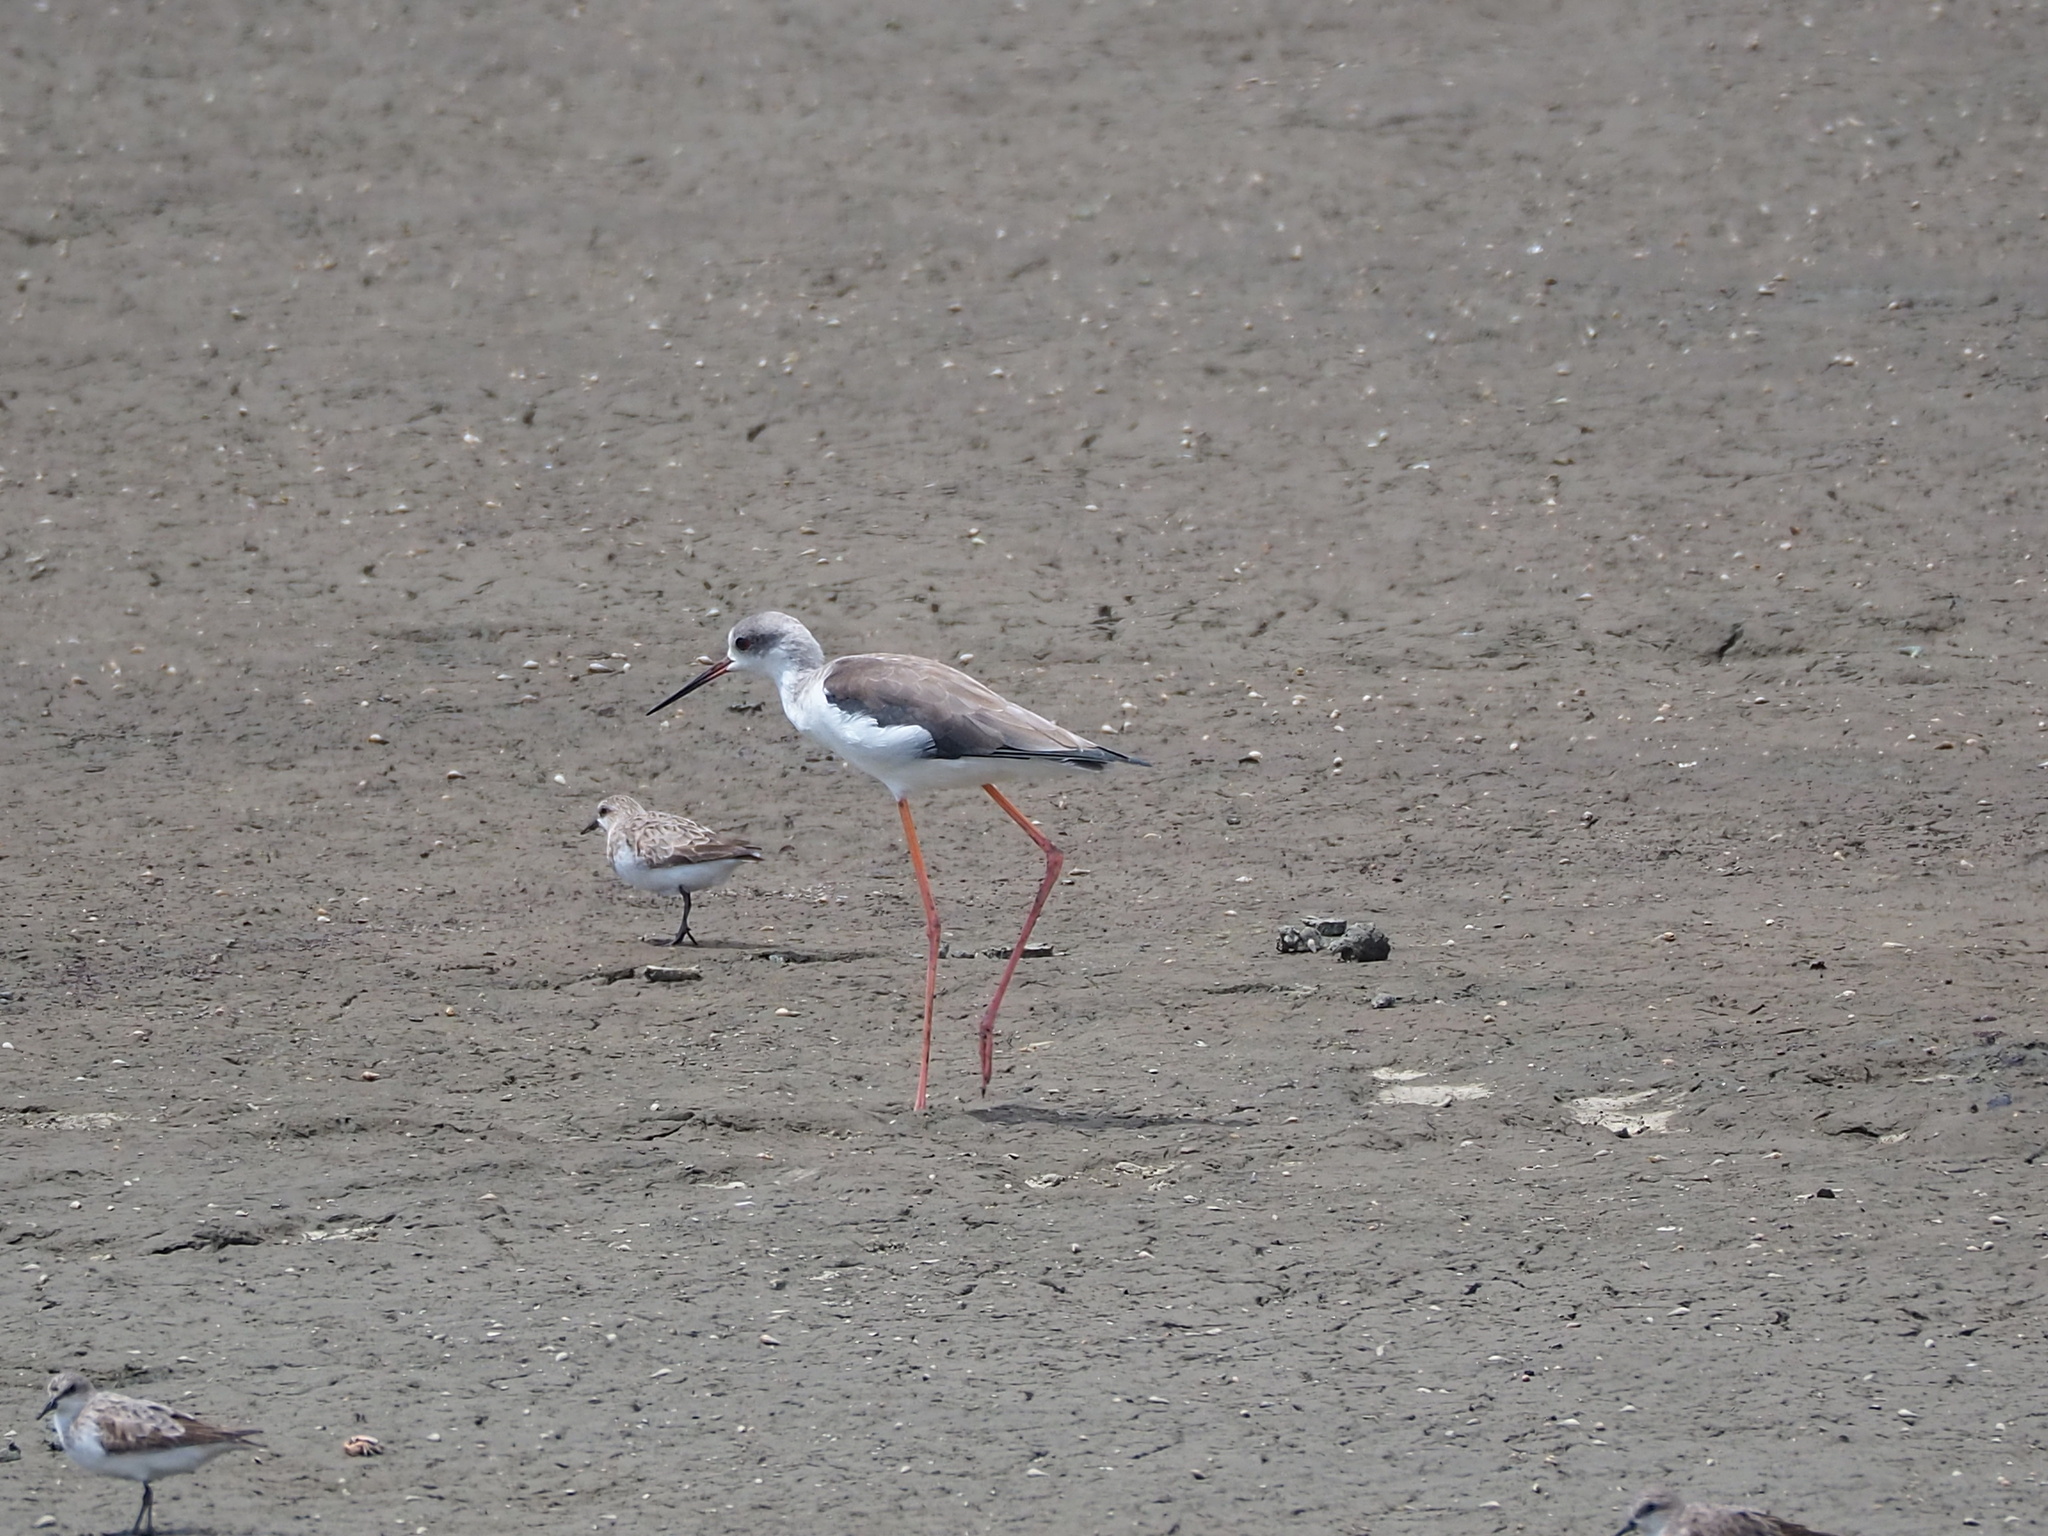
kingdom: Animalia
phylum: Chordata
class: Aves
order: Charadriiformes
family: Recurvirostridae
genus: Himantopus
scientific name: Himantopus himantopus
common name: Black-winged stilt
